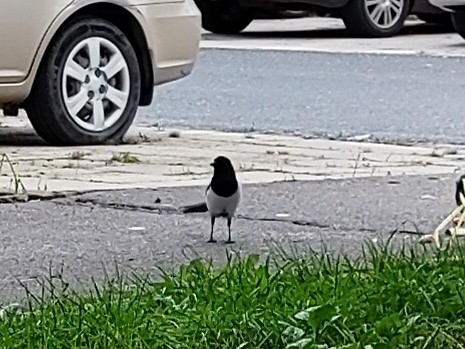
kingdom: Animalia
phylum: Chordata
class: Aves
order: Passeriformes
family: Corvidae
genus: Pica
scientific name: Pica pica
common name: Eurasian magpie
